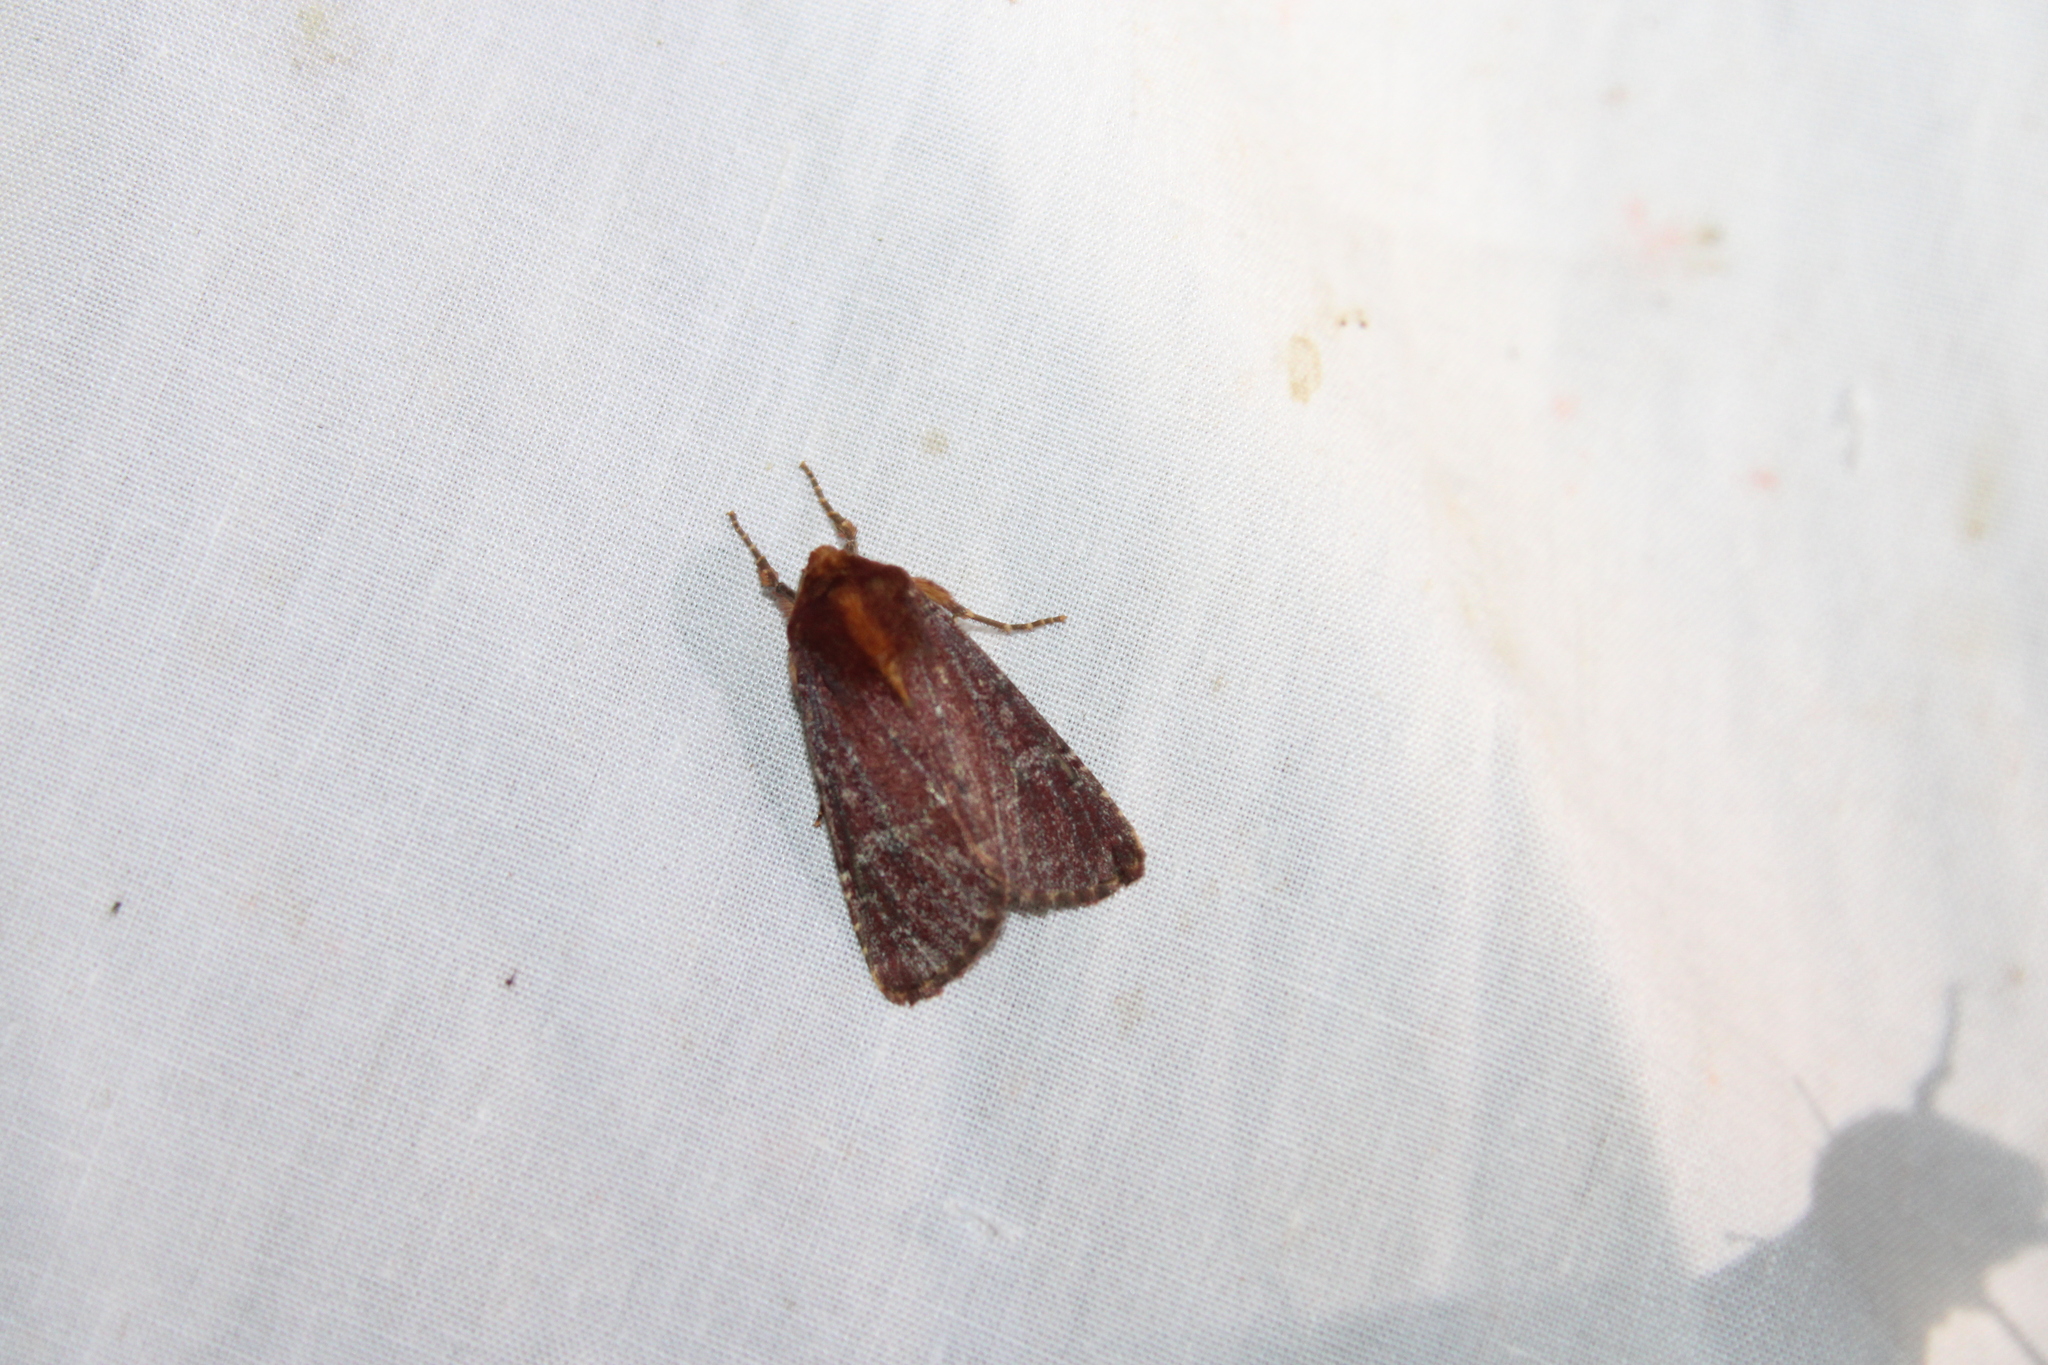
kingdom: Animalia
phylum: Arthropoda
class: Insecta
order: Lepidoptera
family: Noctuidae
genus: Sideridis
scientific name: Sideridis maryx
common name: Maroonwing moth
